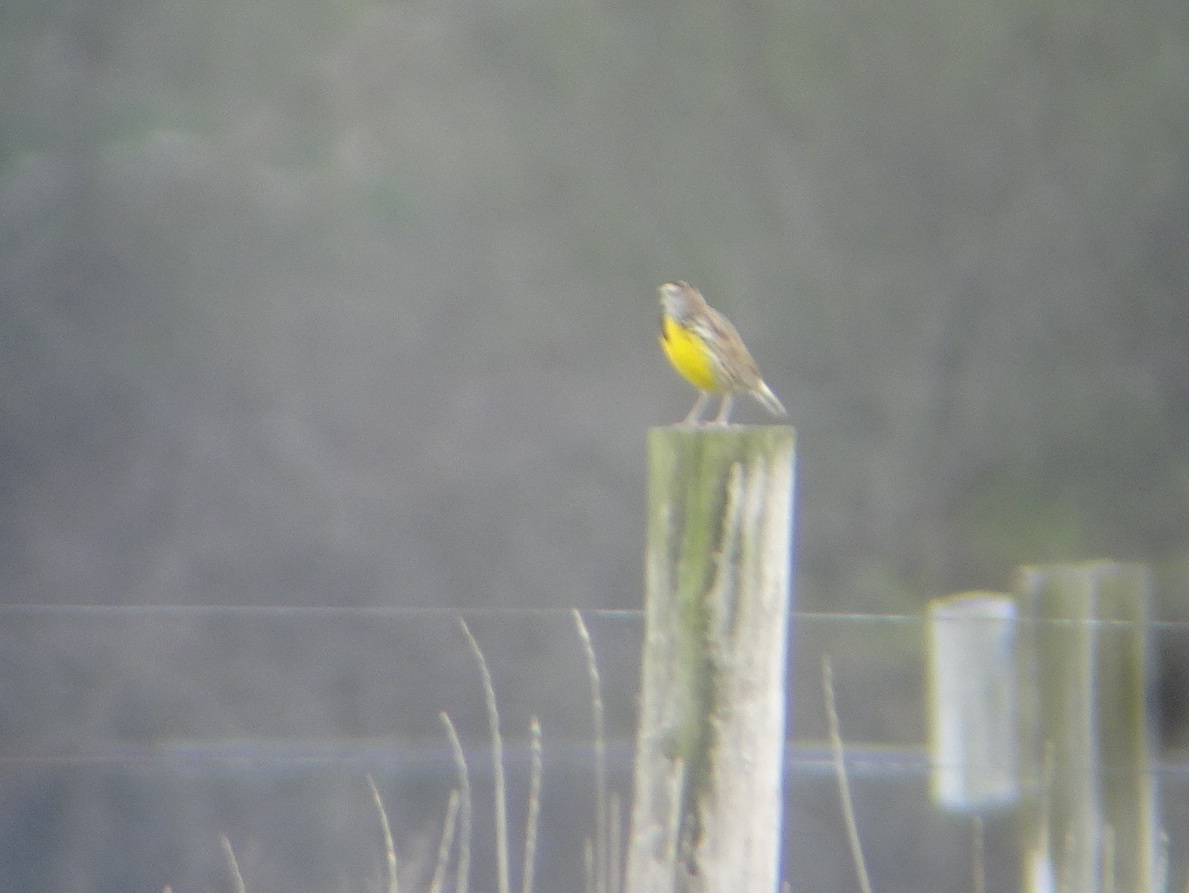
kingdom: Animalia
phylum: Chordata
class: Aves
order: Passeriformes
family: Icteridae
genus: Sturnella
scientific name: Sturnella magna
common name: Eastern meadowlark
